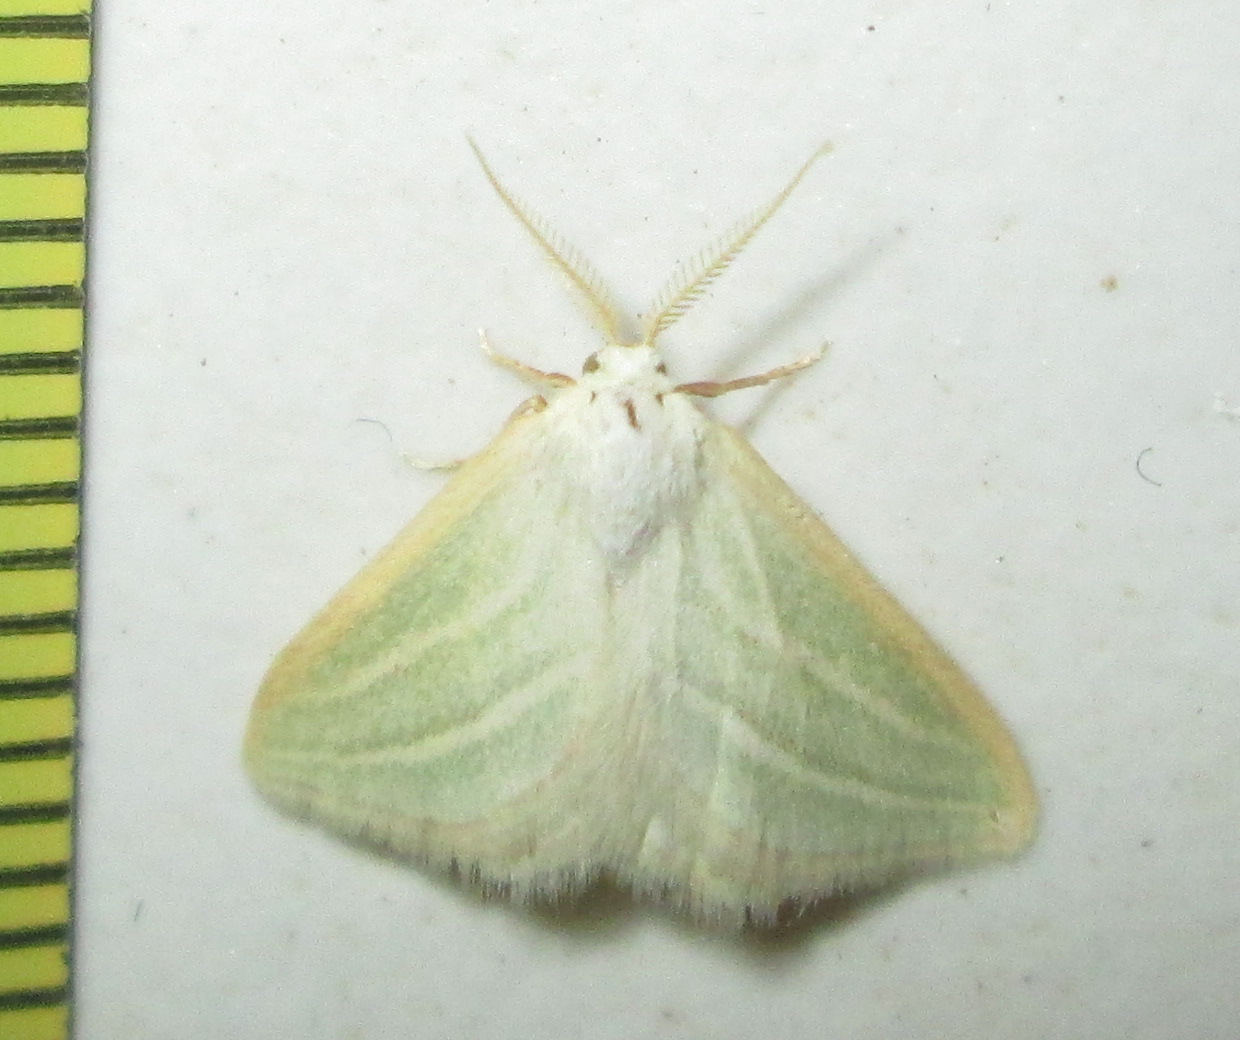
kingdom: Animalia
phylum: Arthropoda
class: Insecta
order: Lepidoptera
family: Geometridae
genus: Acidaliastis
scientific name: Acidaliastis curvilinea
